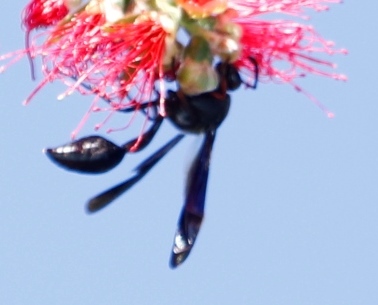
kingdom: Animalia
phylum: Arthropoda
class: Insecta
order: Hymenoptera
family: Eumenidae
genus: Delta
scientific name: Delta
